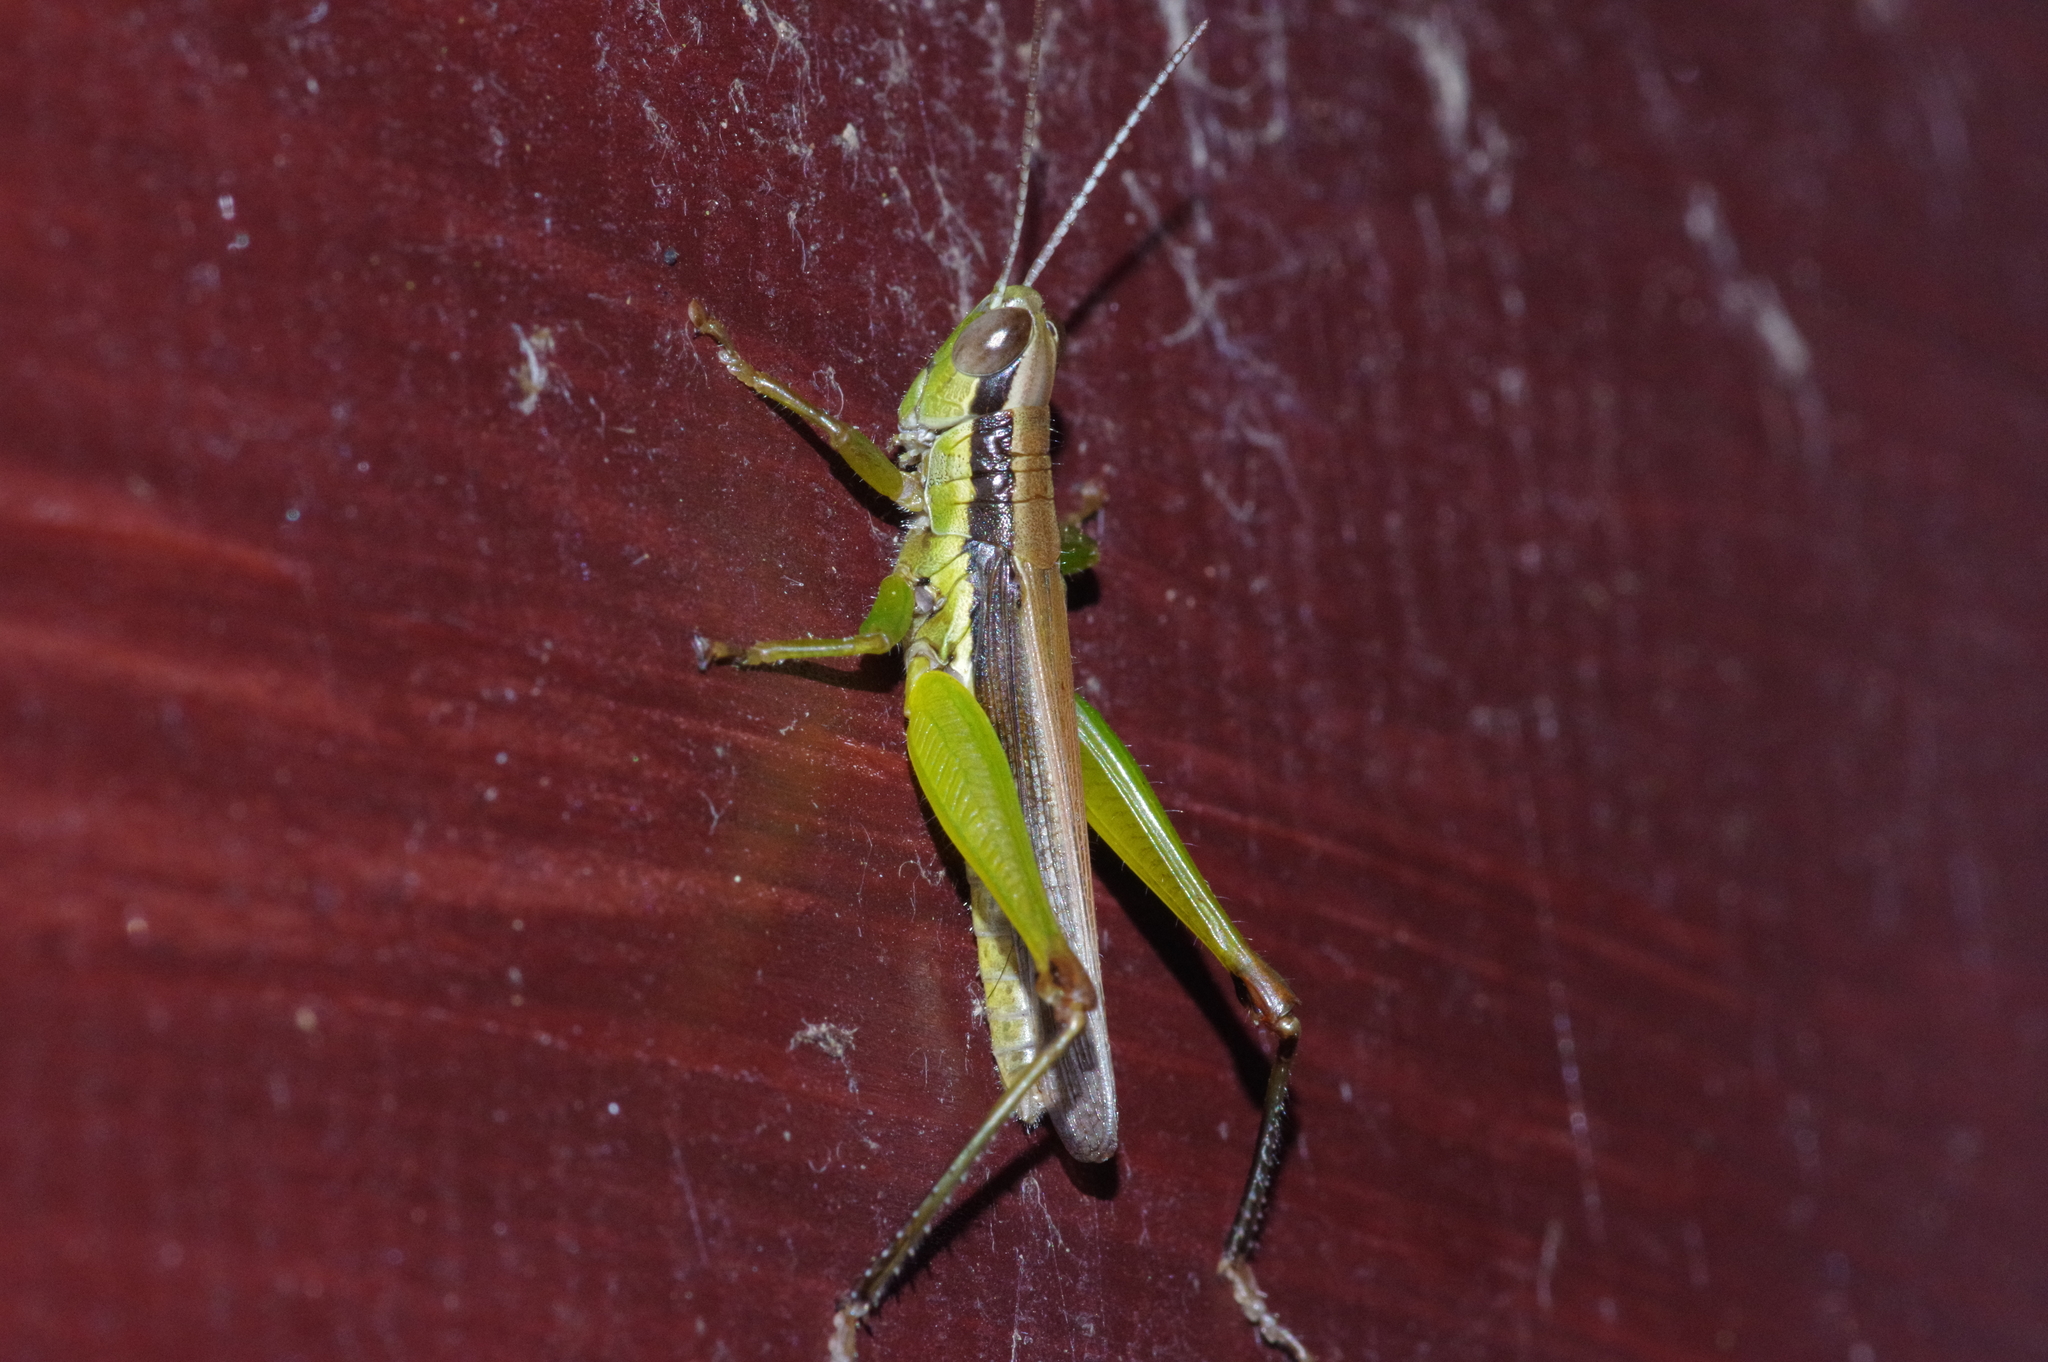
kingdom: Animalia
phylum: Arthropoda
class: Insecta
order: Orthoptera
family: Acrididae
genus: Oxya
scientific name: Oxya intricata
